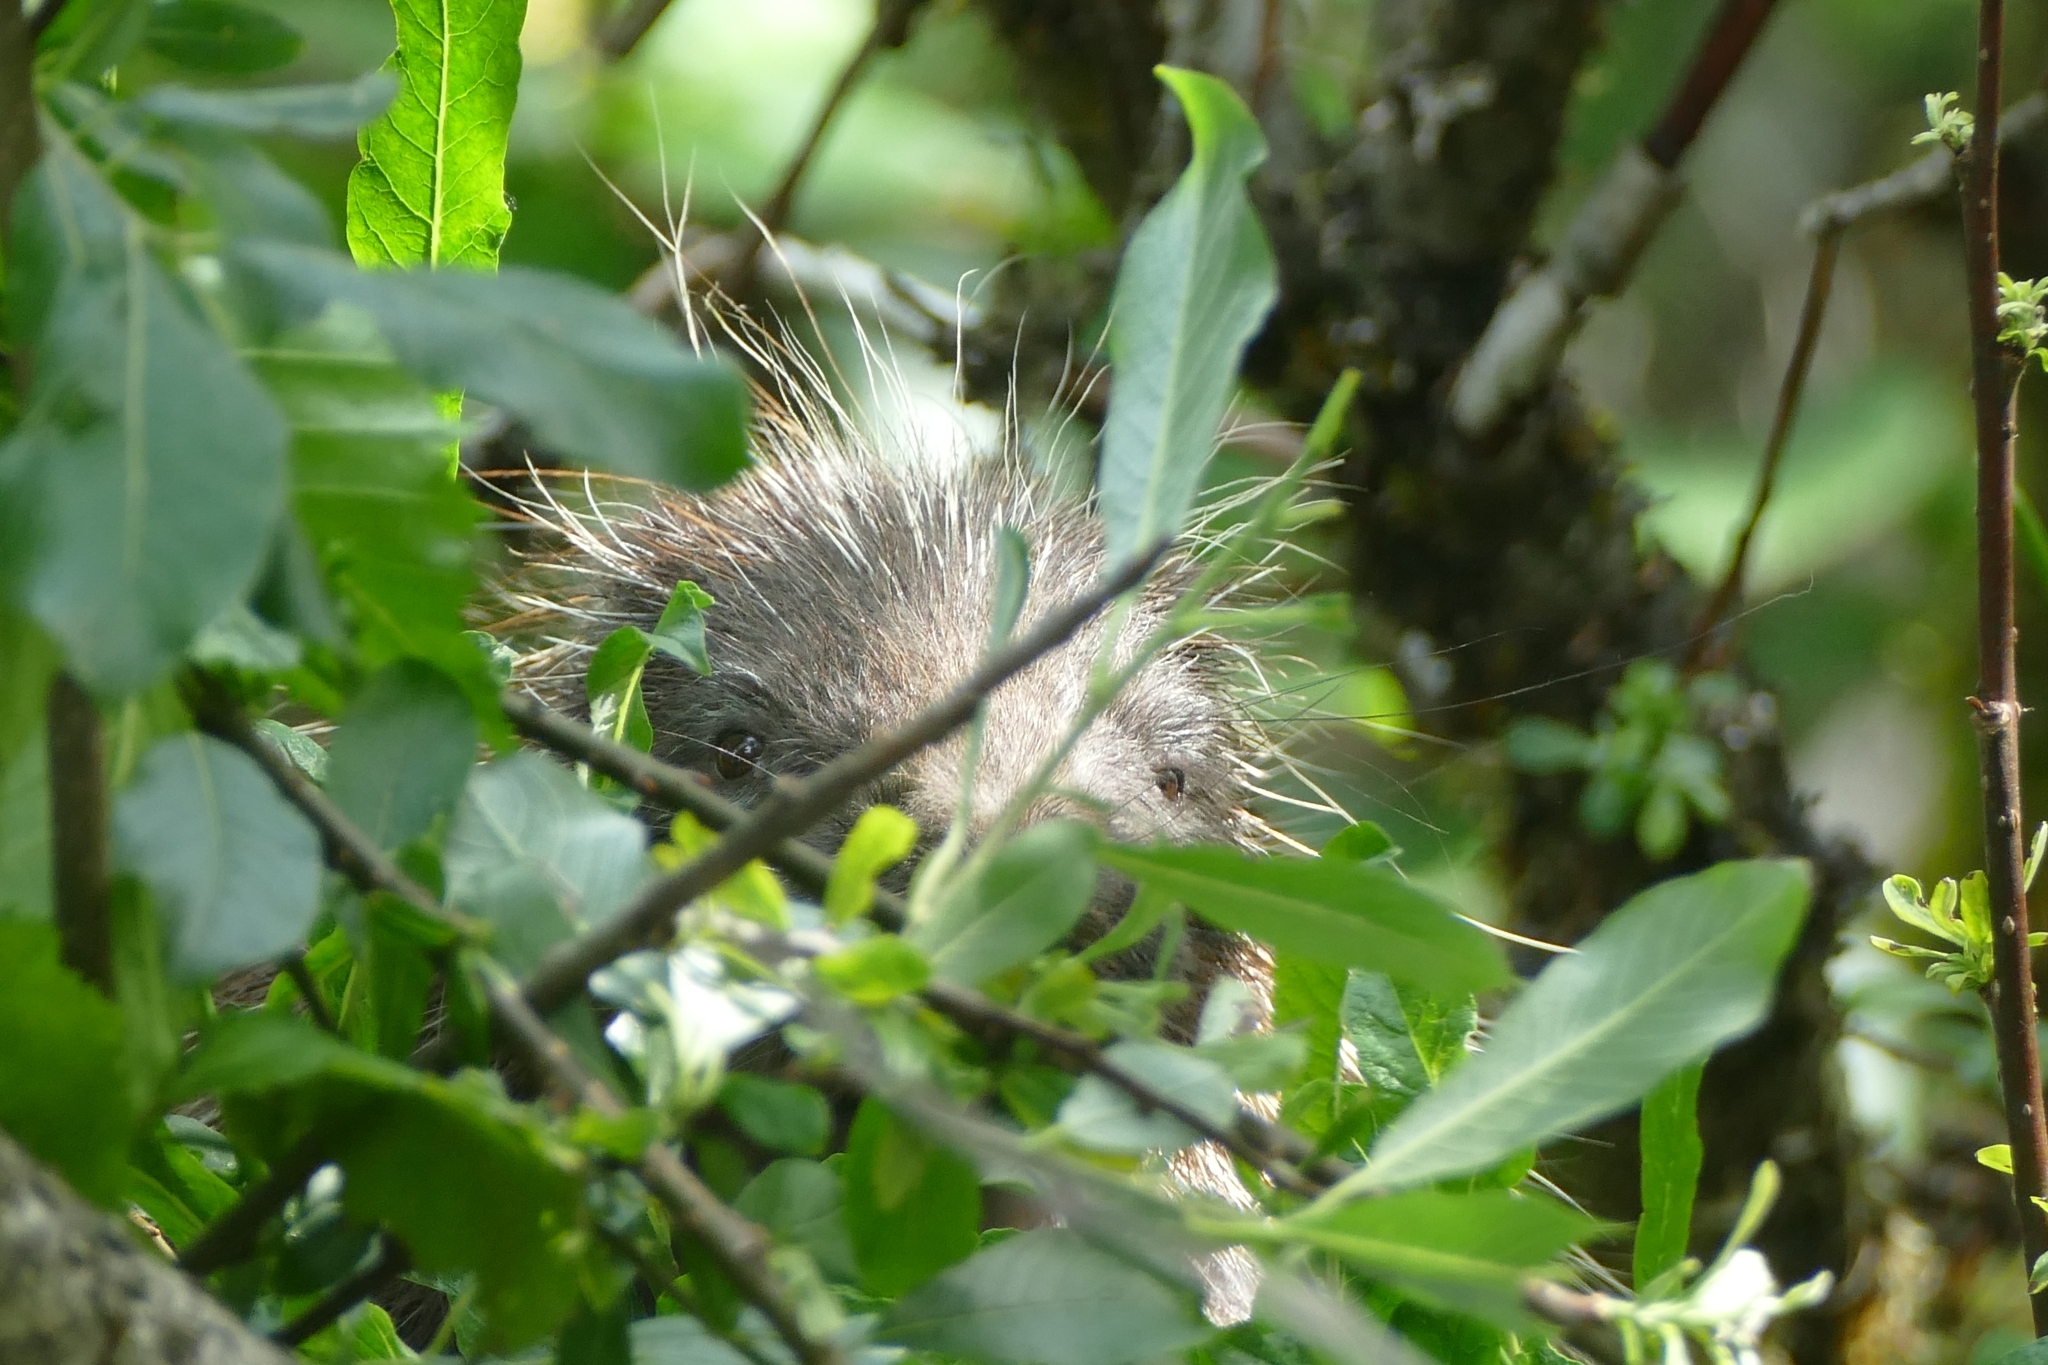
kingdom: Animalia
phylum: Chordata
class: Mammalia
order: Rodentia
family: Erethizontidae
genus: Erethizon
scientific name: Erethizon dorsatus
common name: North american porcupine
